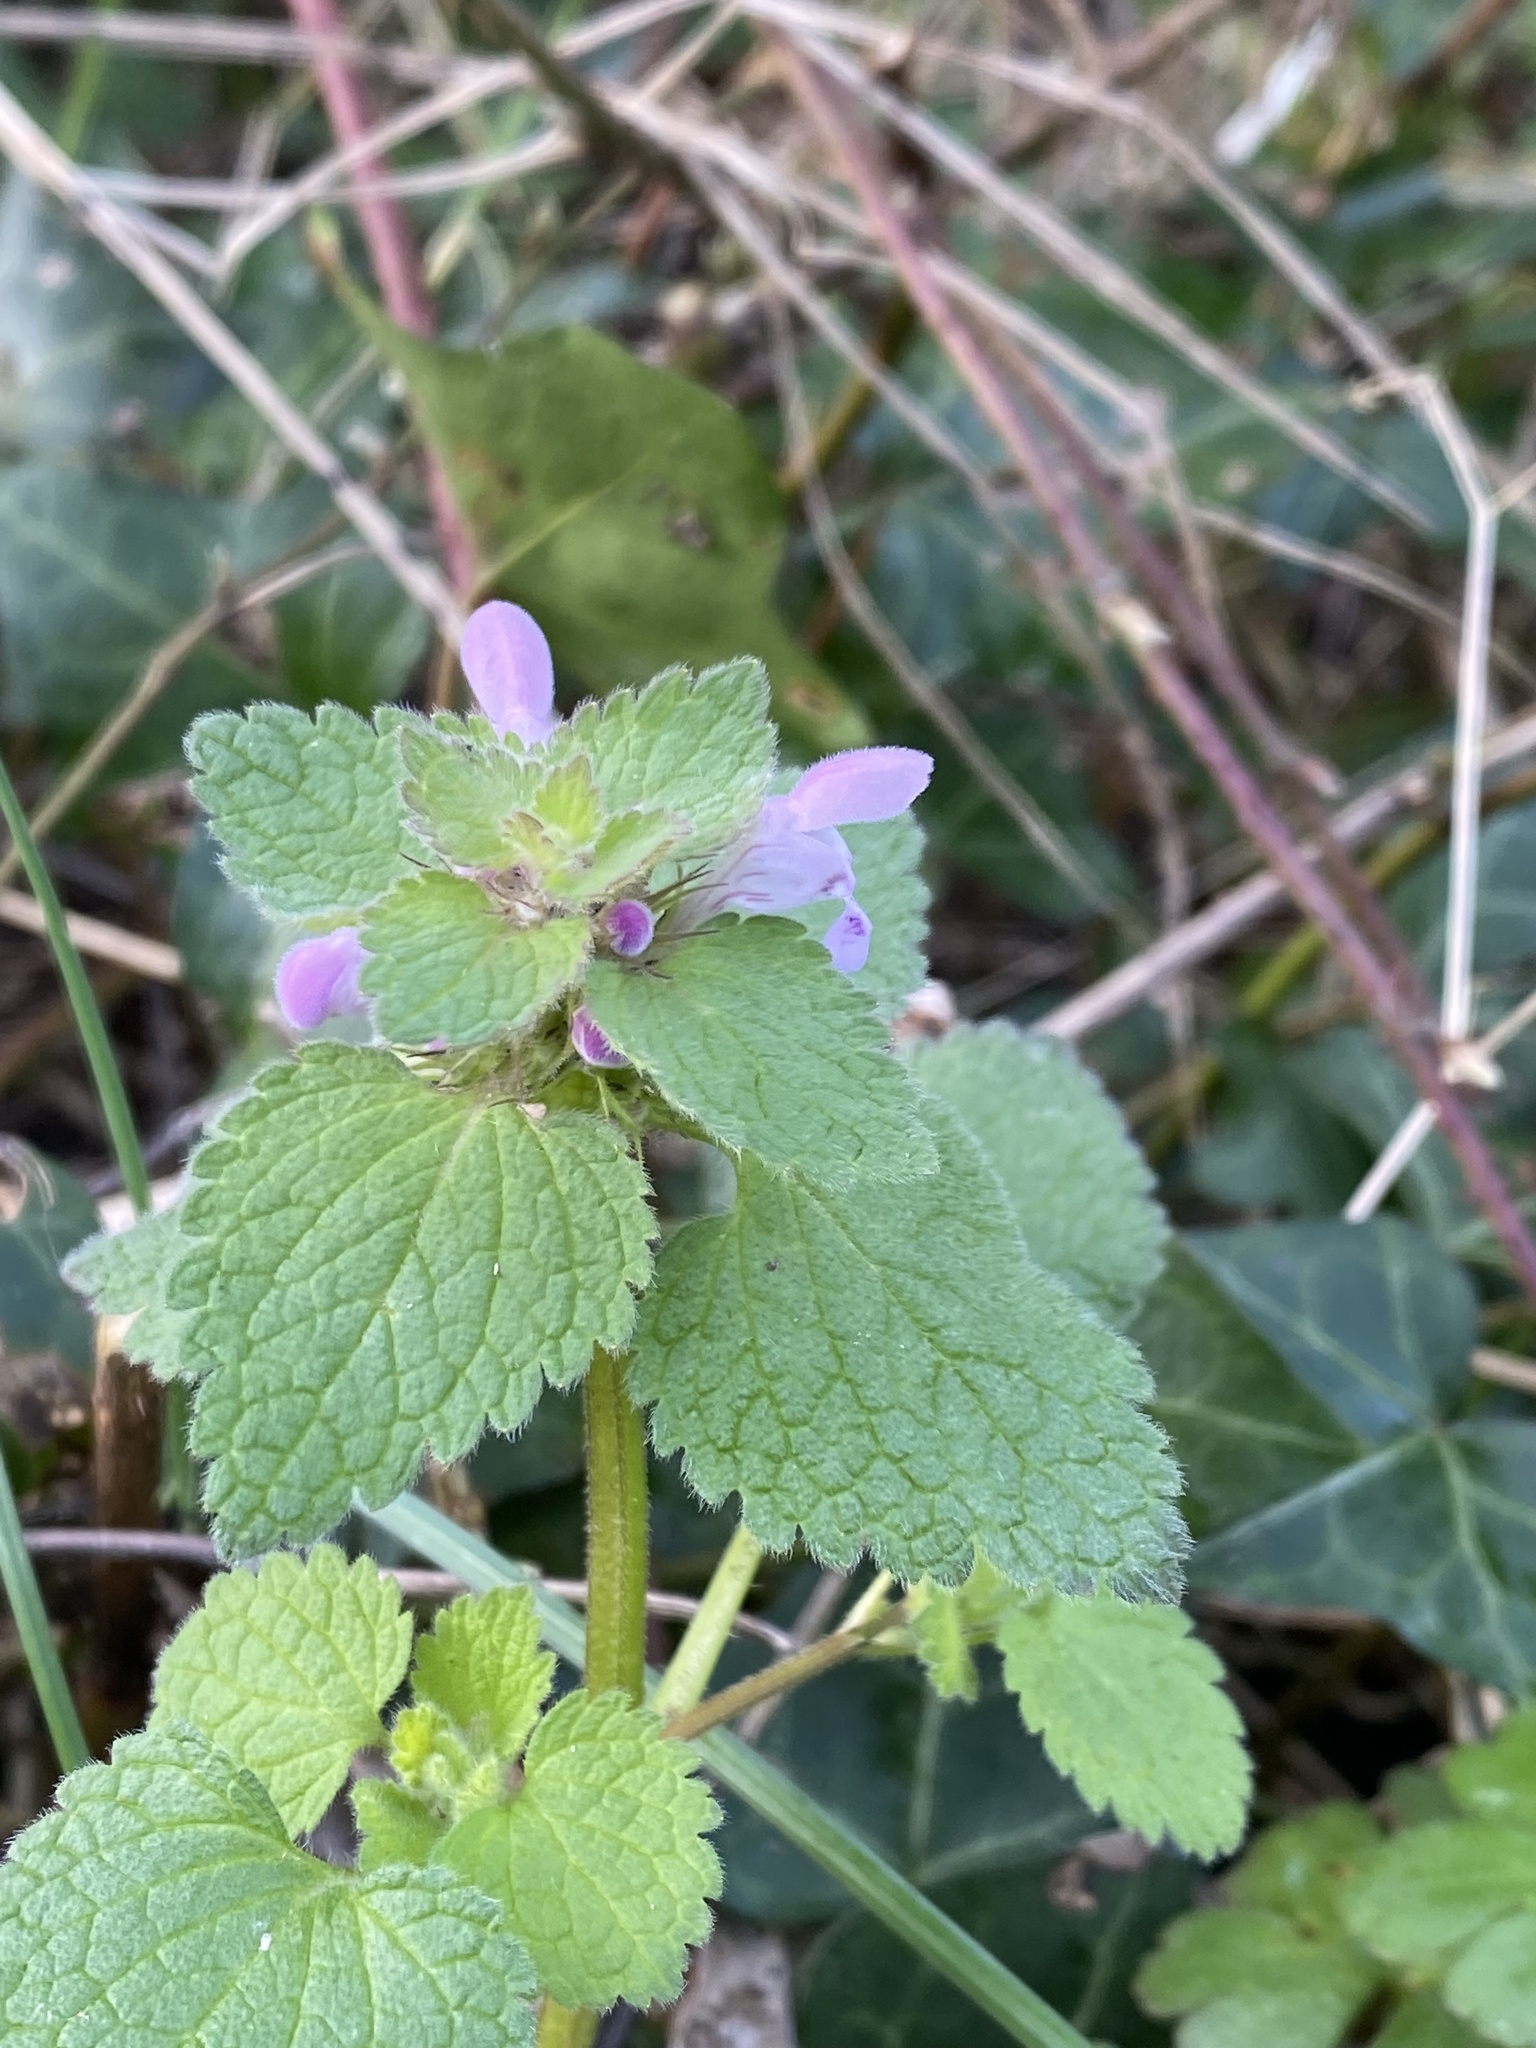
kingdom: Plantae
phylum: Tracheophyta
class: Magnoliopsida
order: Lamiales
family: Lamiaceae
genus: Lamium
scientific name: Lamium purpureum
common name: Red dead-nettle
